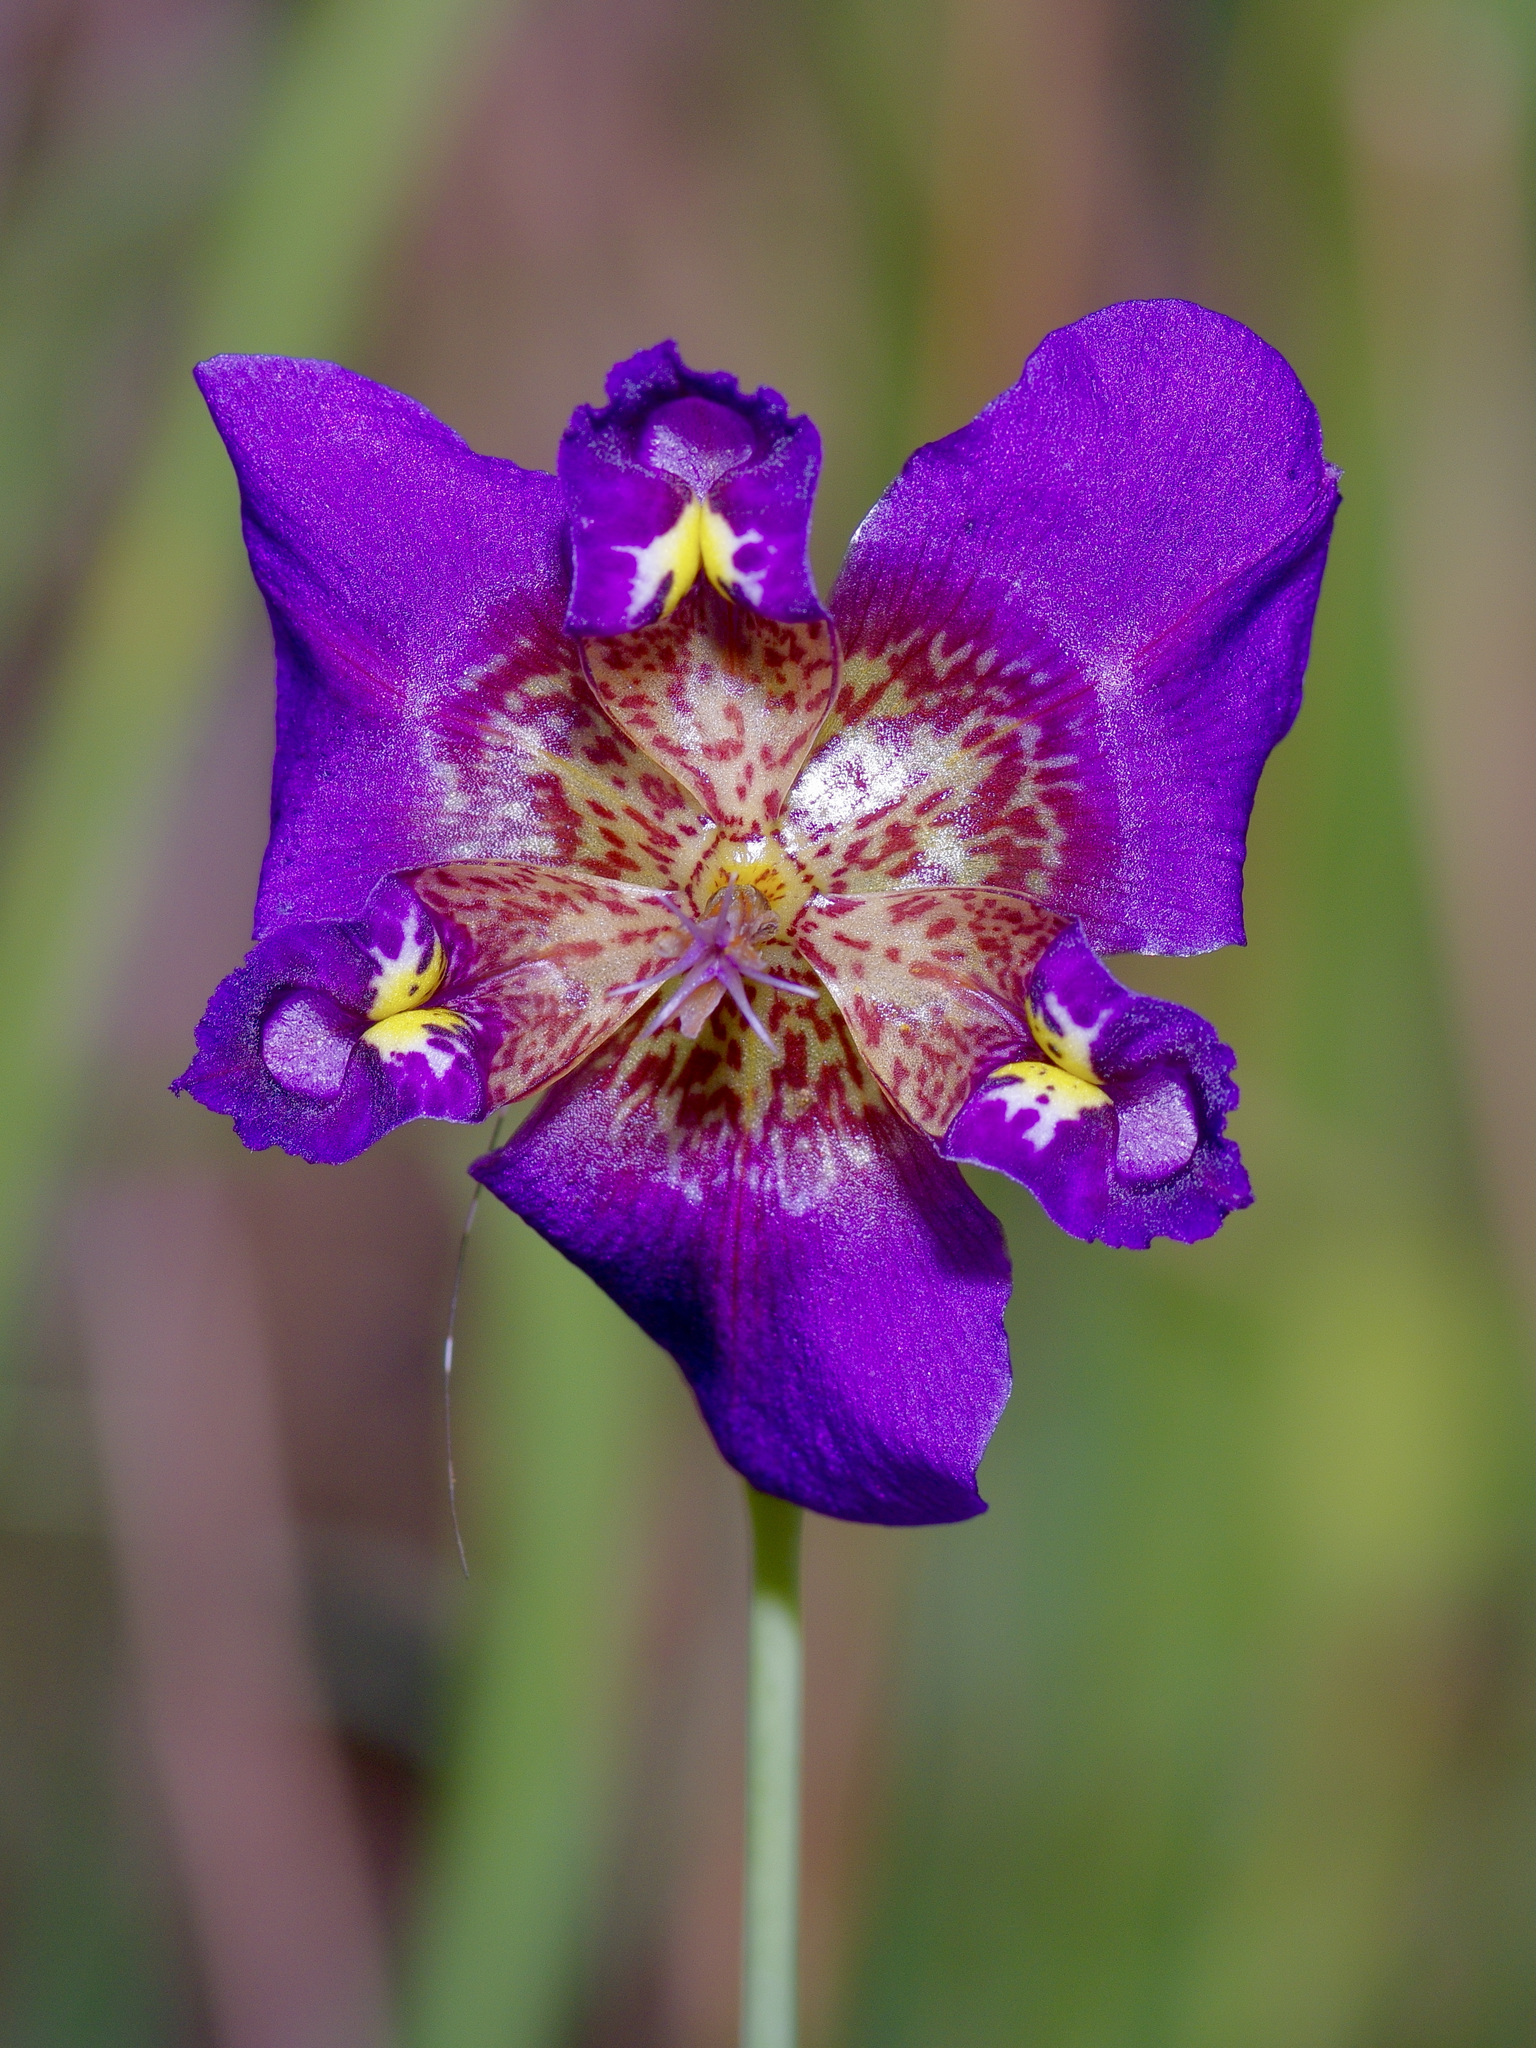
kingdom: Plantae
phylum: Tracheophyta
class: Liliopsida
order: Asparagales
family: Iridaceae
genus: Alophia
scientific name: Alophia drummondii
